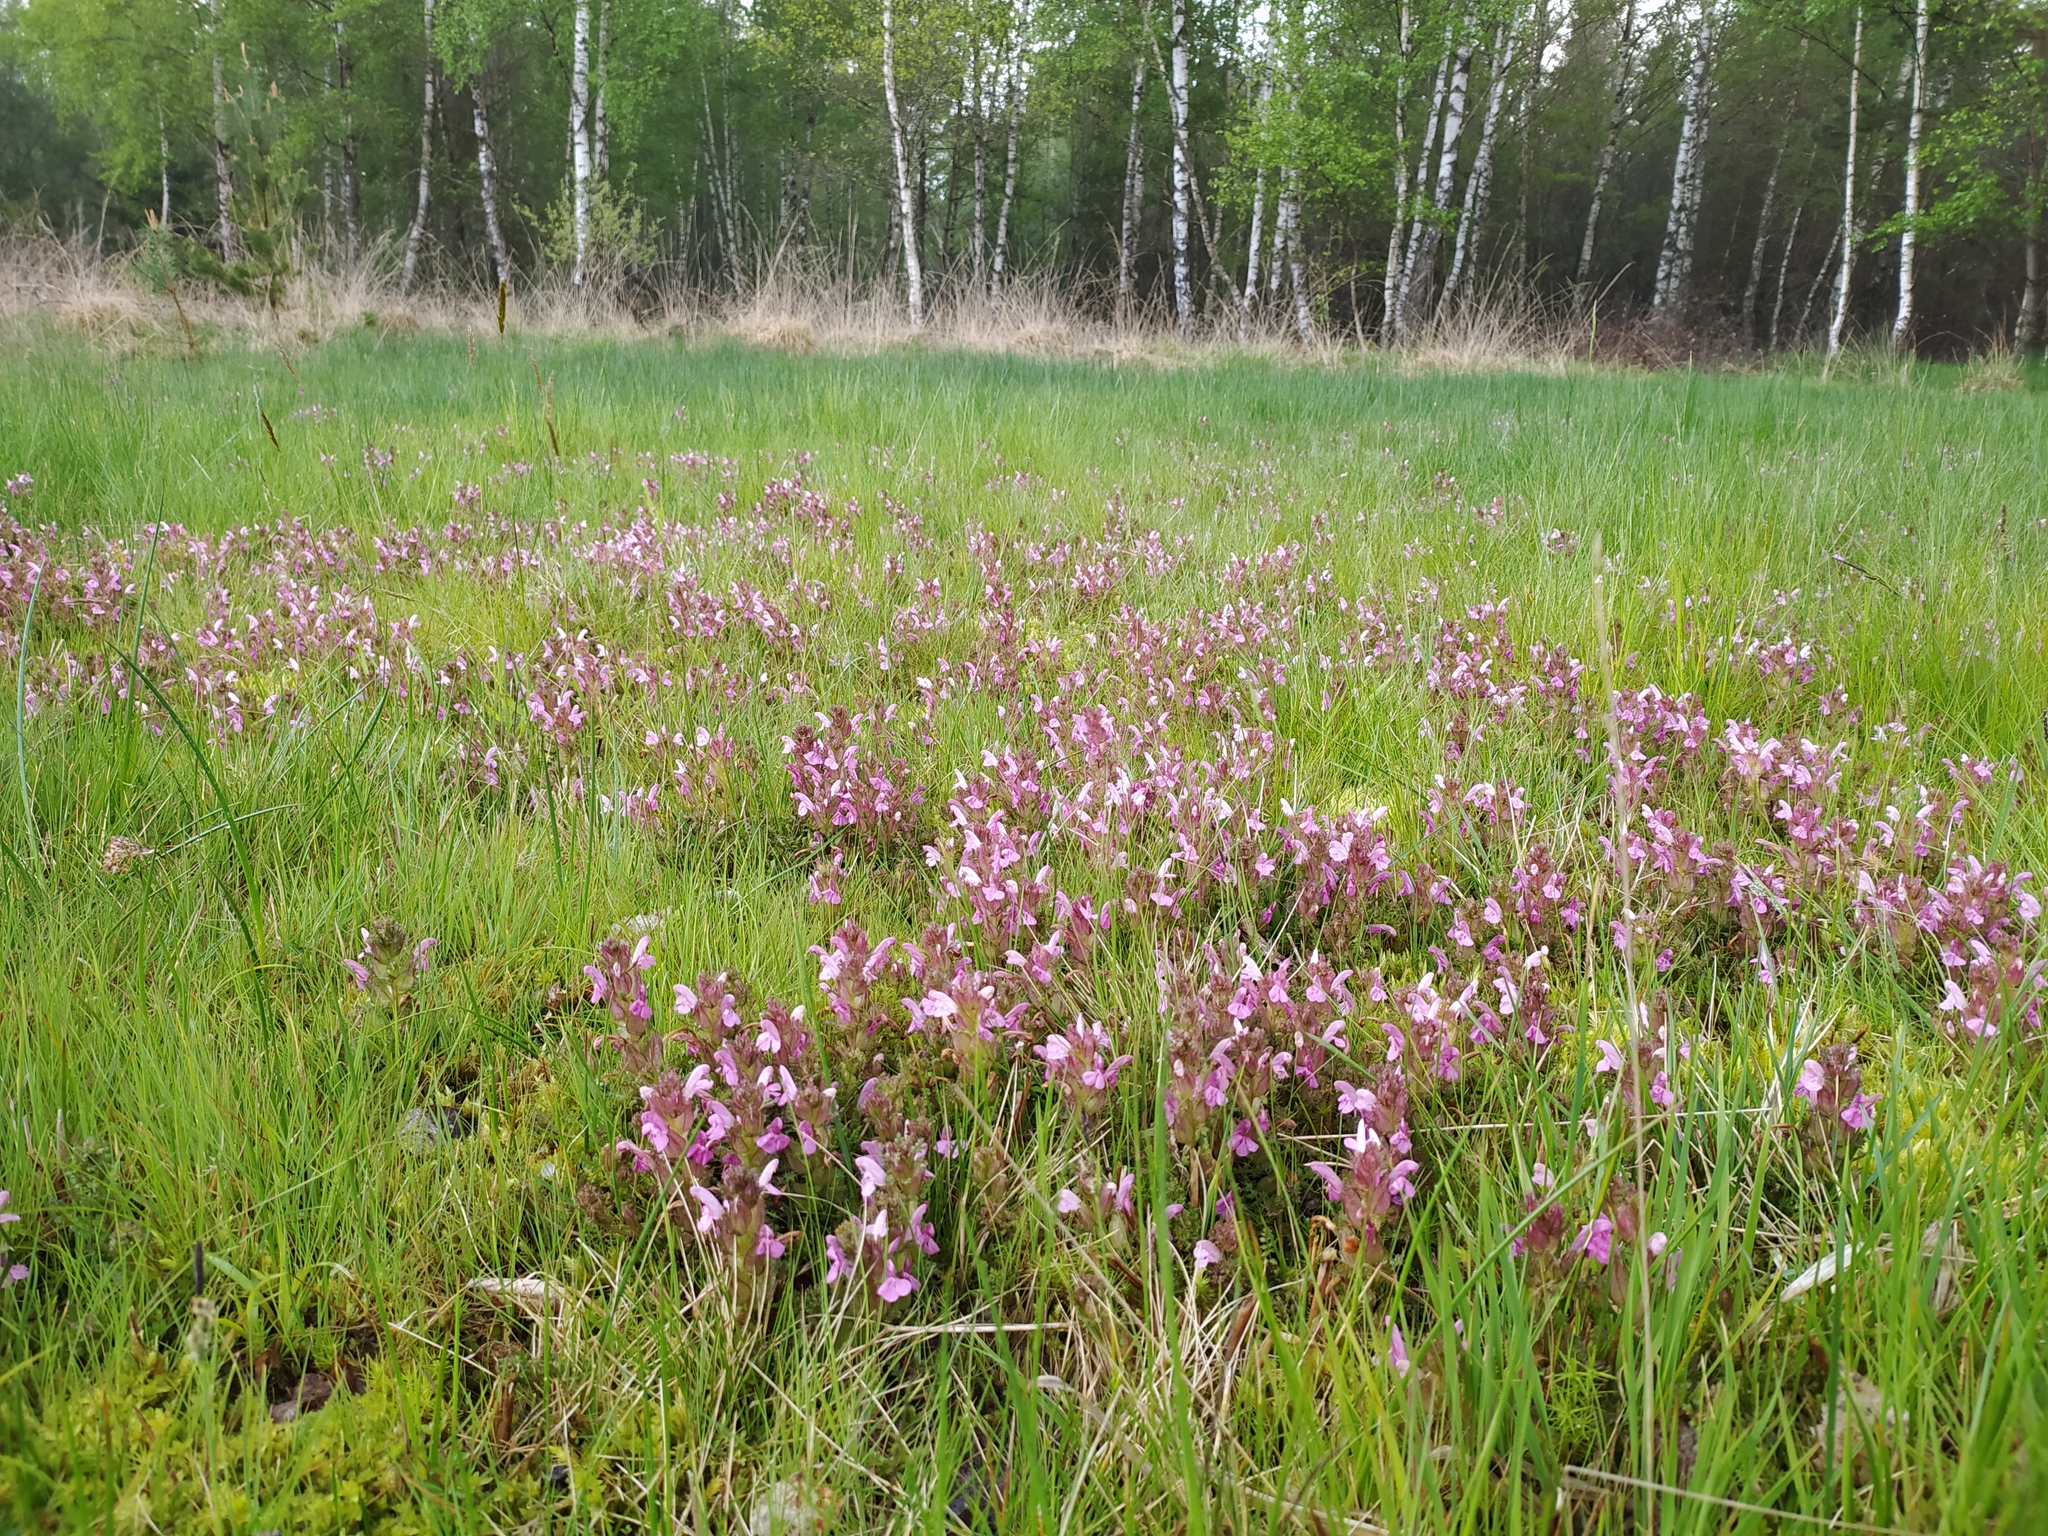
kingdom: Plantae
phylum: Tracheophyta
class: Magnoliopsida
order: Lamiales
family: Orobanchaceae
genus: Pedicularis
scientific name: Pedicularis sylvatica
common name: Lousewort
